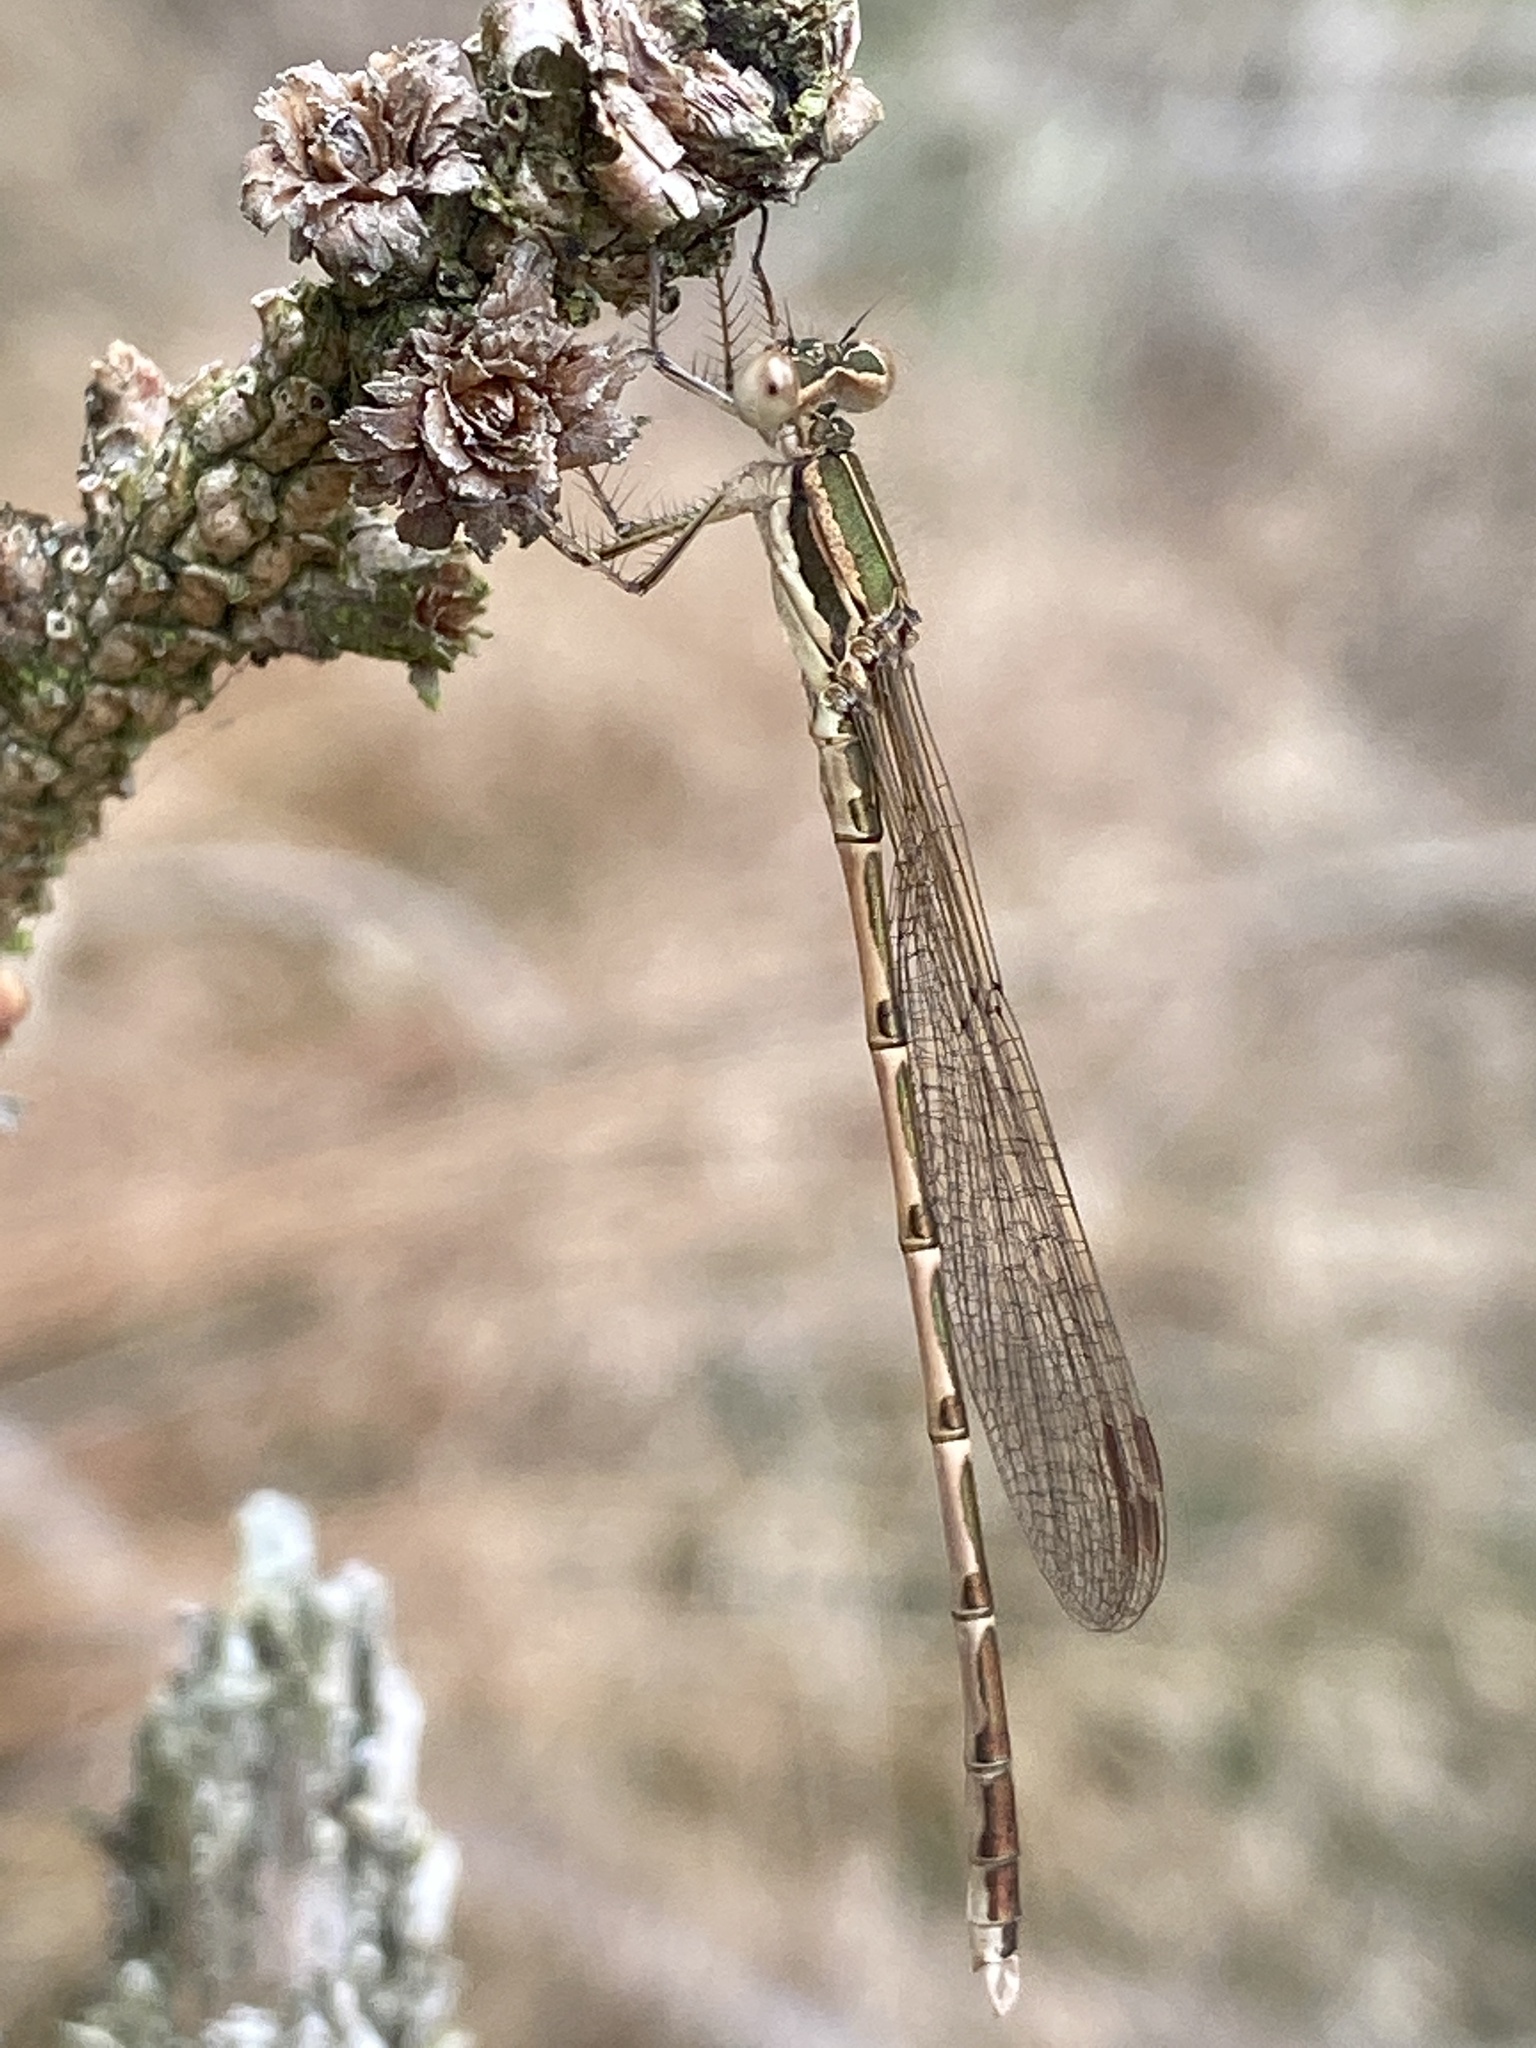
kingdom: Animalia
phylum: Arthropoda
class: Insecta
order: Odonata
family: Lestidae
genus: Sympecma
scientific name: Sympecma fusca
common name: Common winter damsel
